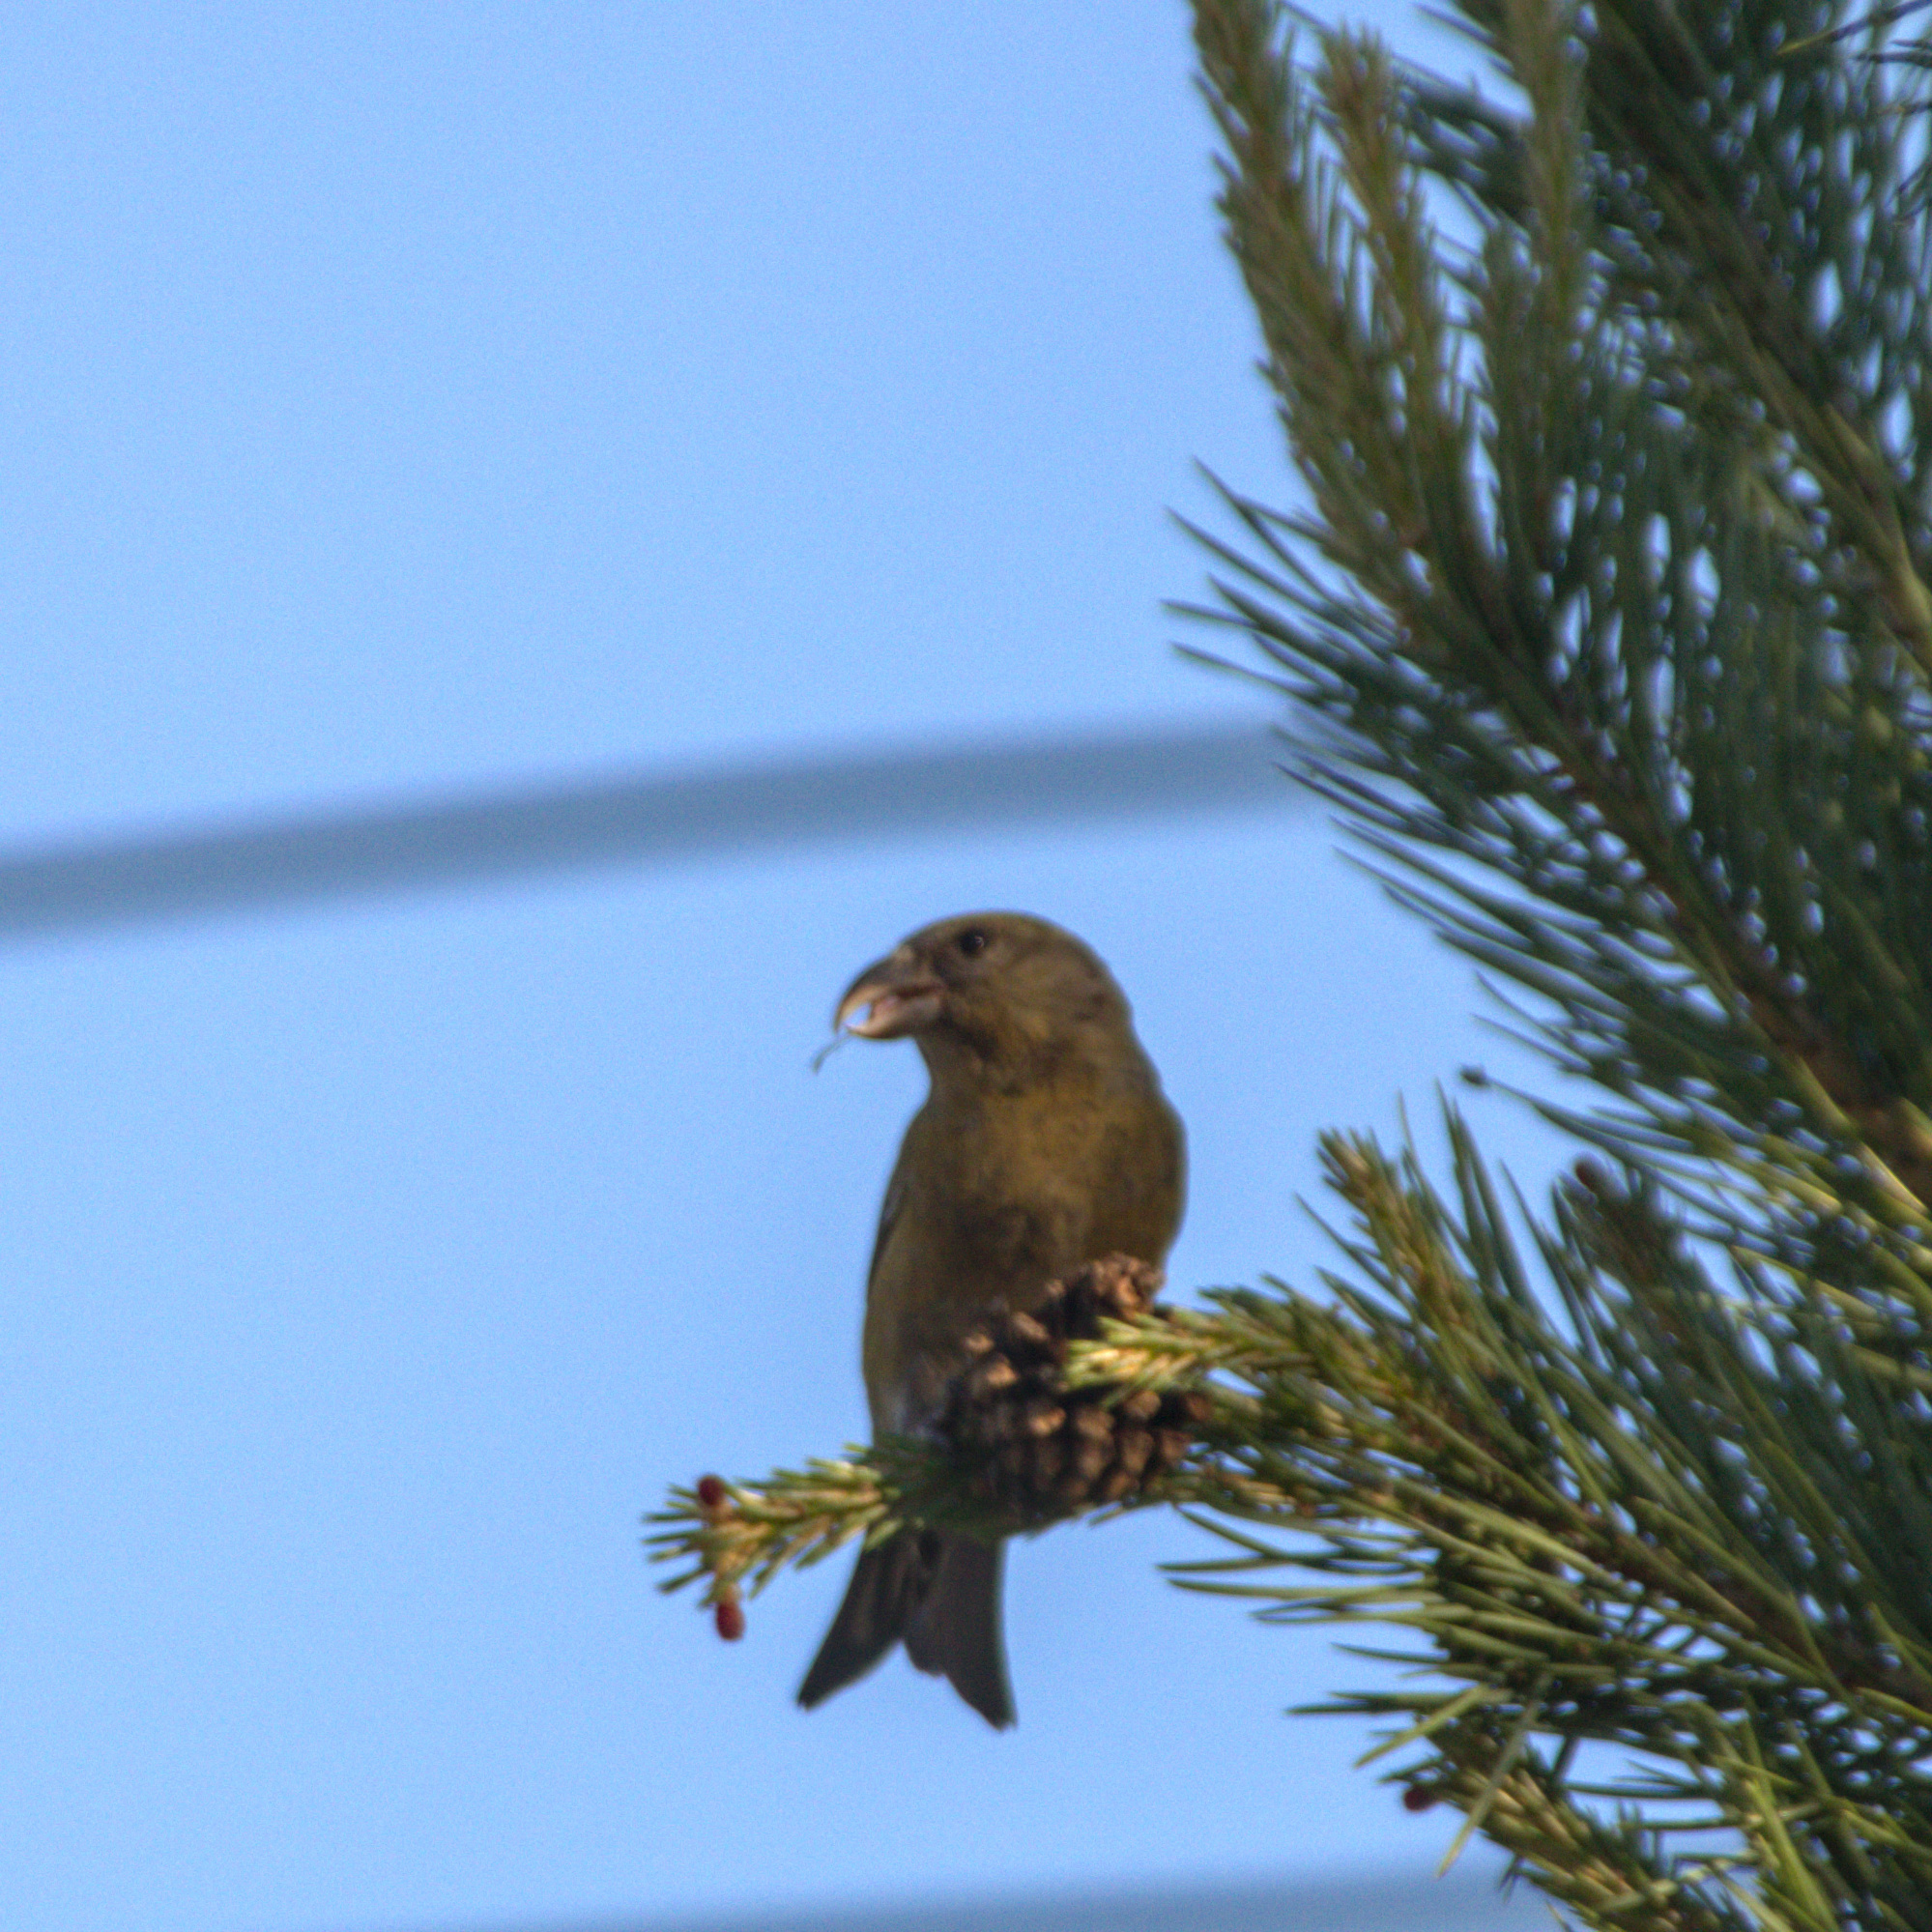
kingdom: Animalia
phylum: Chordata
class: Aves
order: Passeriformes
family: Fringillidae
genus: Loxia
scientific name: Loxia curvirostra
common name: Red crossbill
